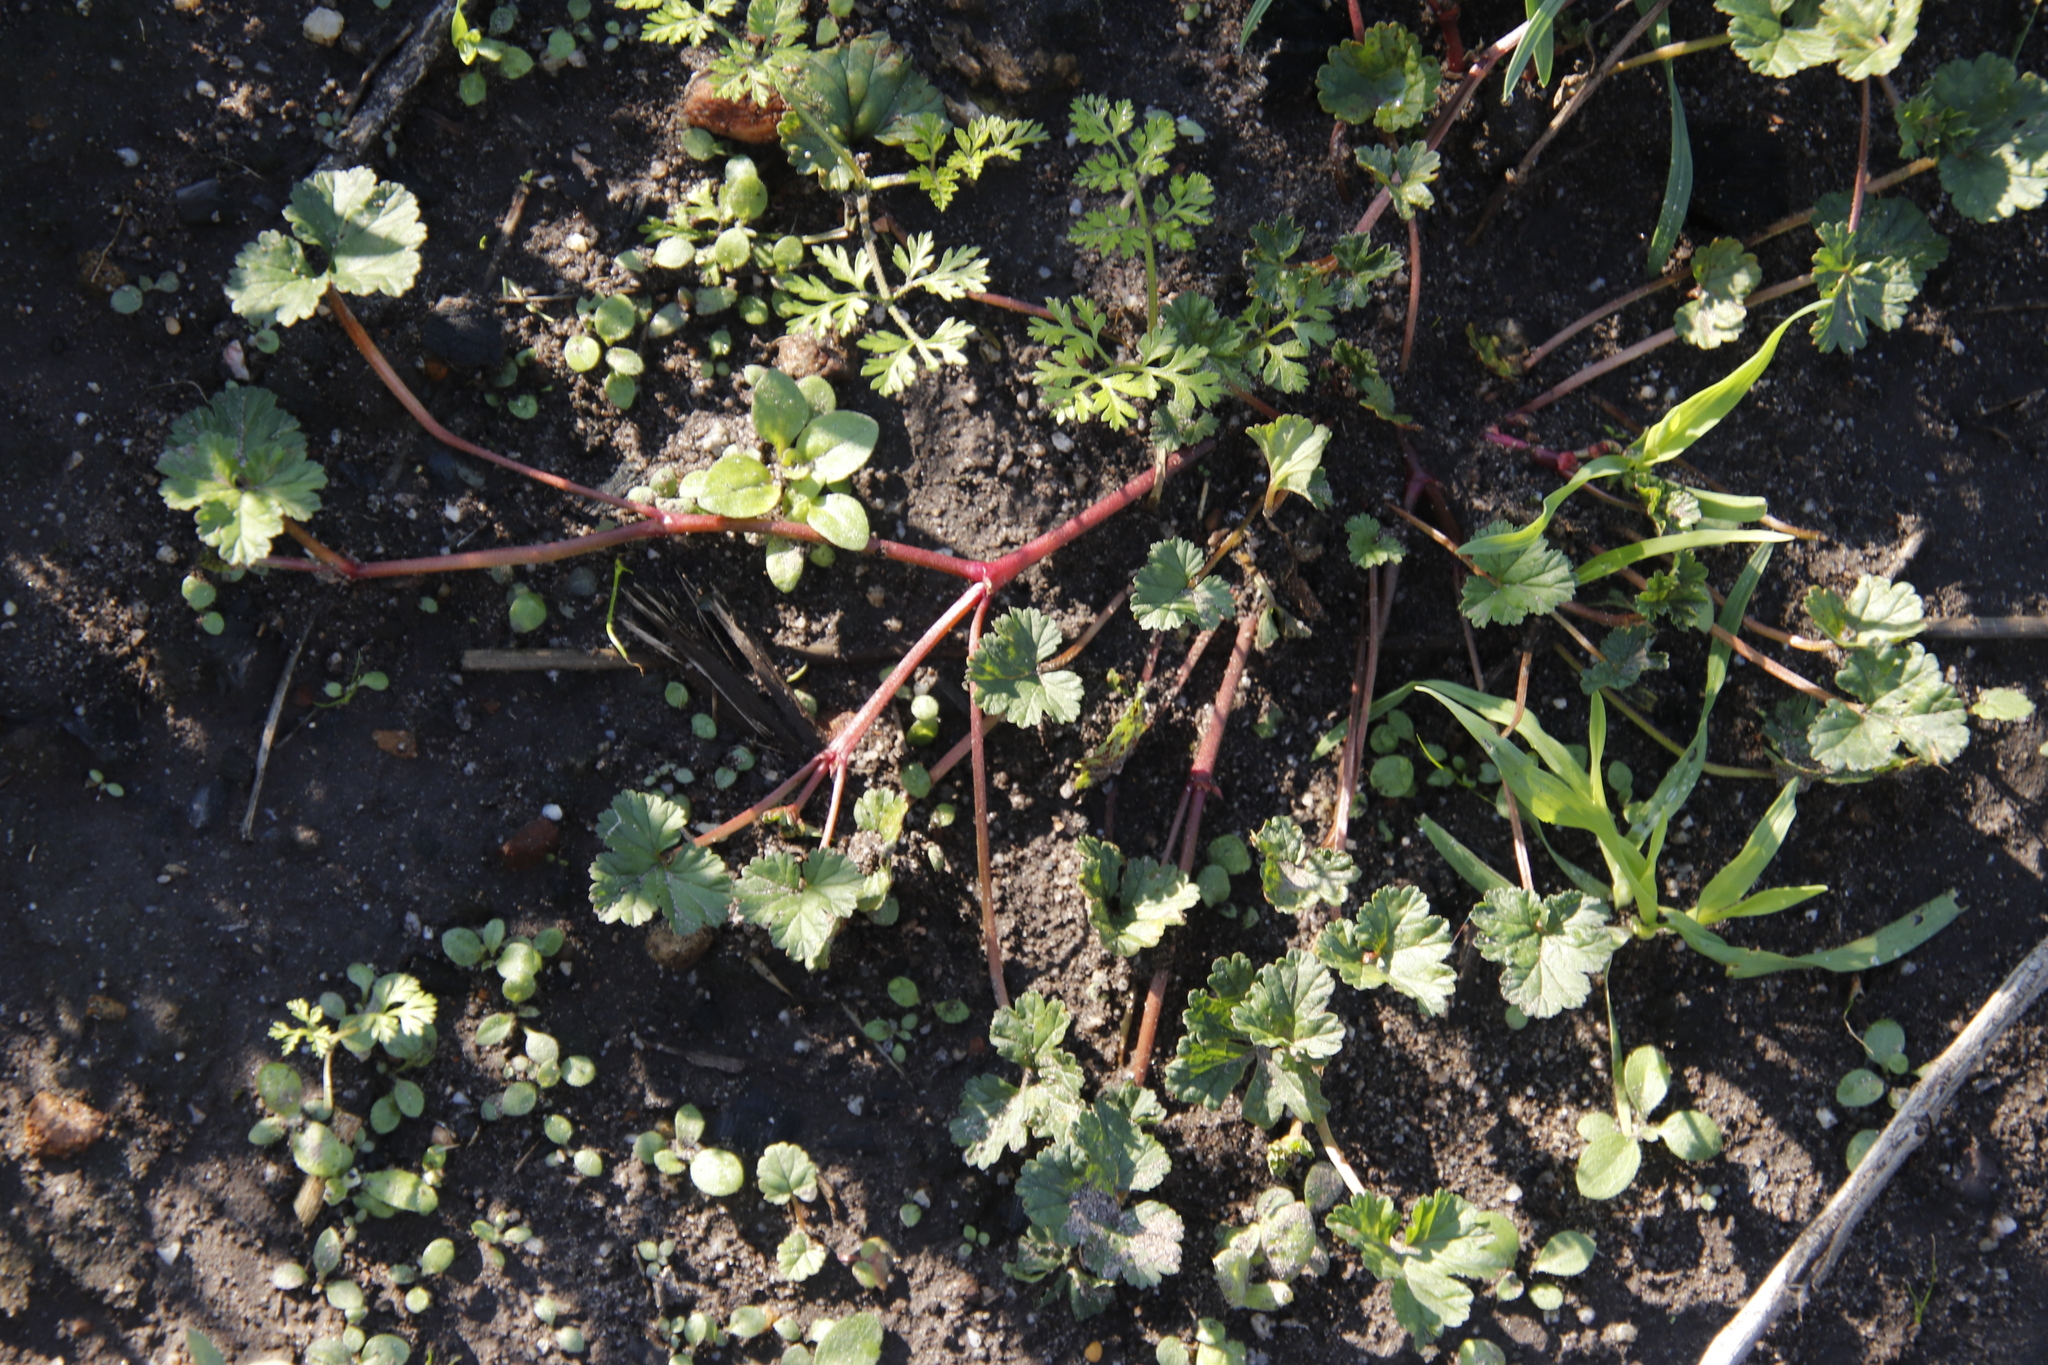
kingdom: Plantae
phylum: Tracheophyta
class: Magnoliopsida
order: Geraniales
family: Geraniaceae
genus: Pelargonium
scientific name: Pelargonium grossularioides
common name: Gooseberry geranium
